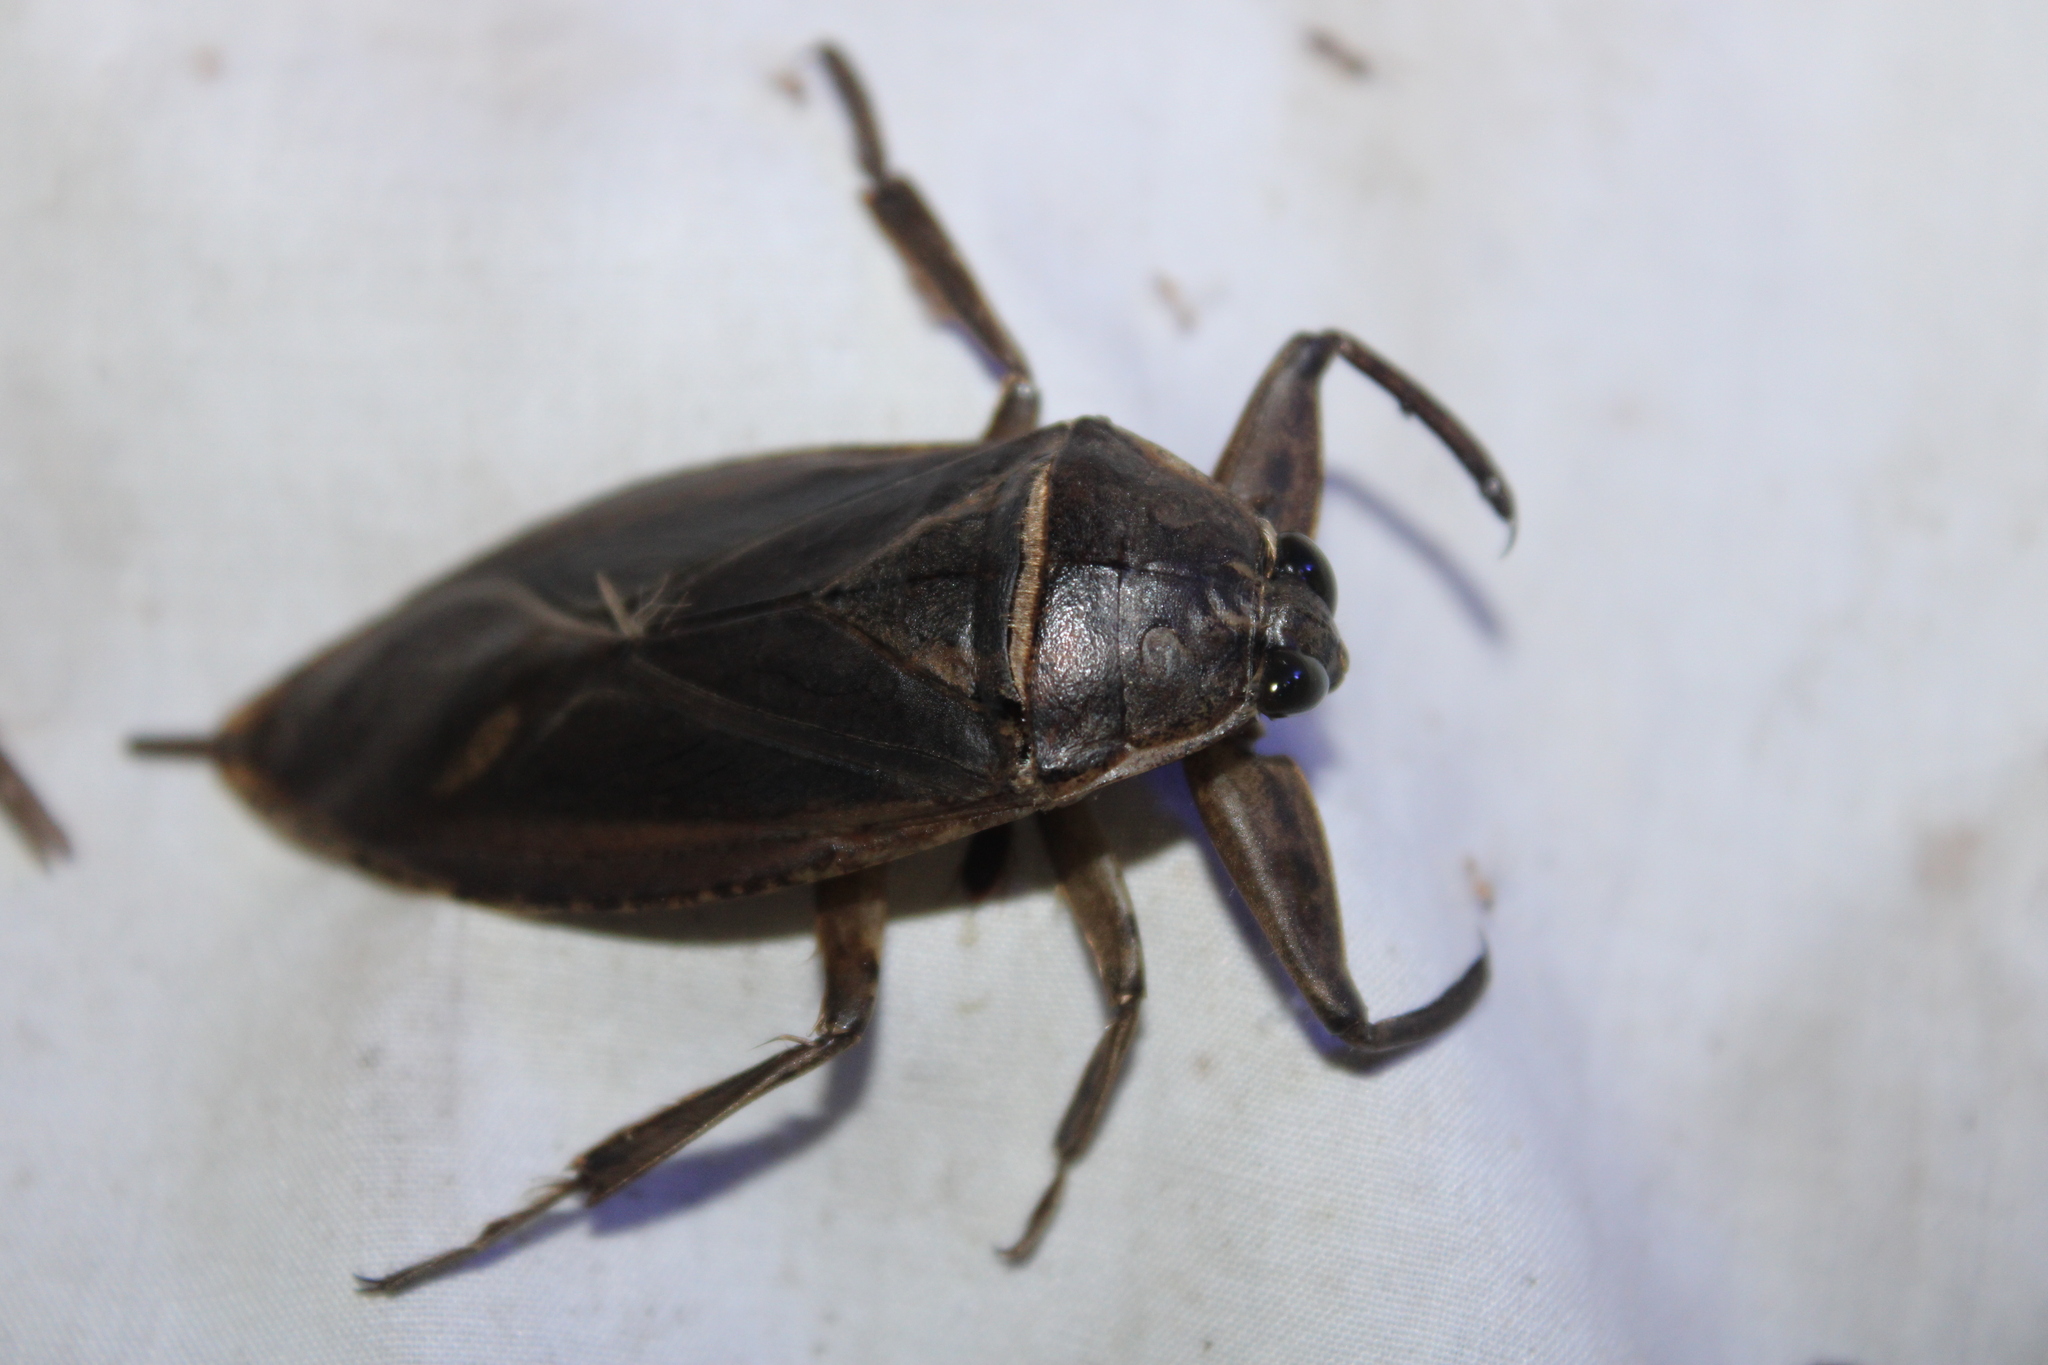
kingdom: Animalia
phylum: Arthropoda
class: Insecta
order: Hemiptera
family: Belostomatidae
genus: Lethocerus
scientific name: Lethocerus americanus
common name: Giant water bug
